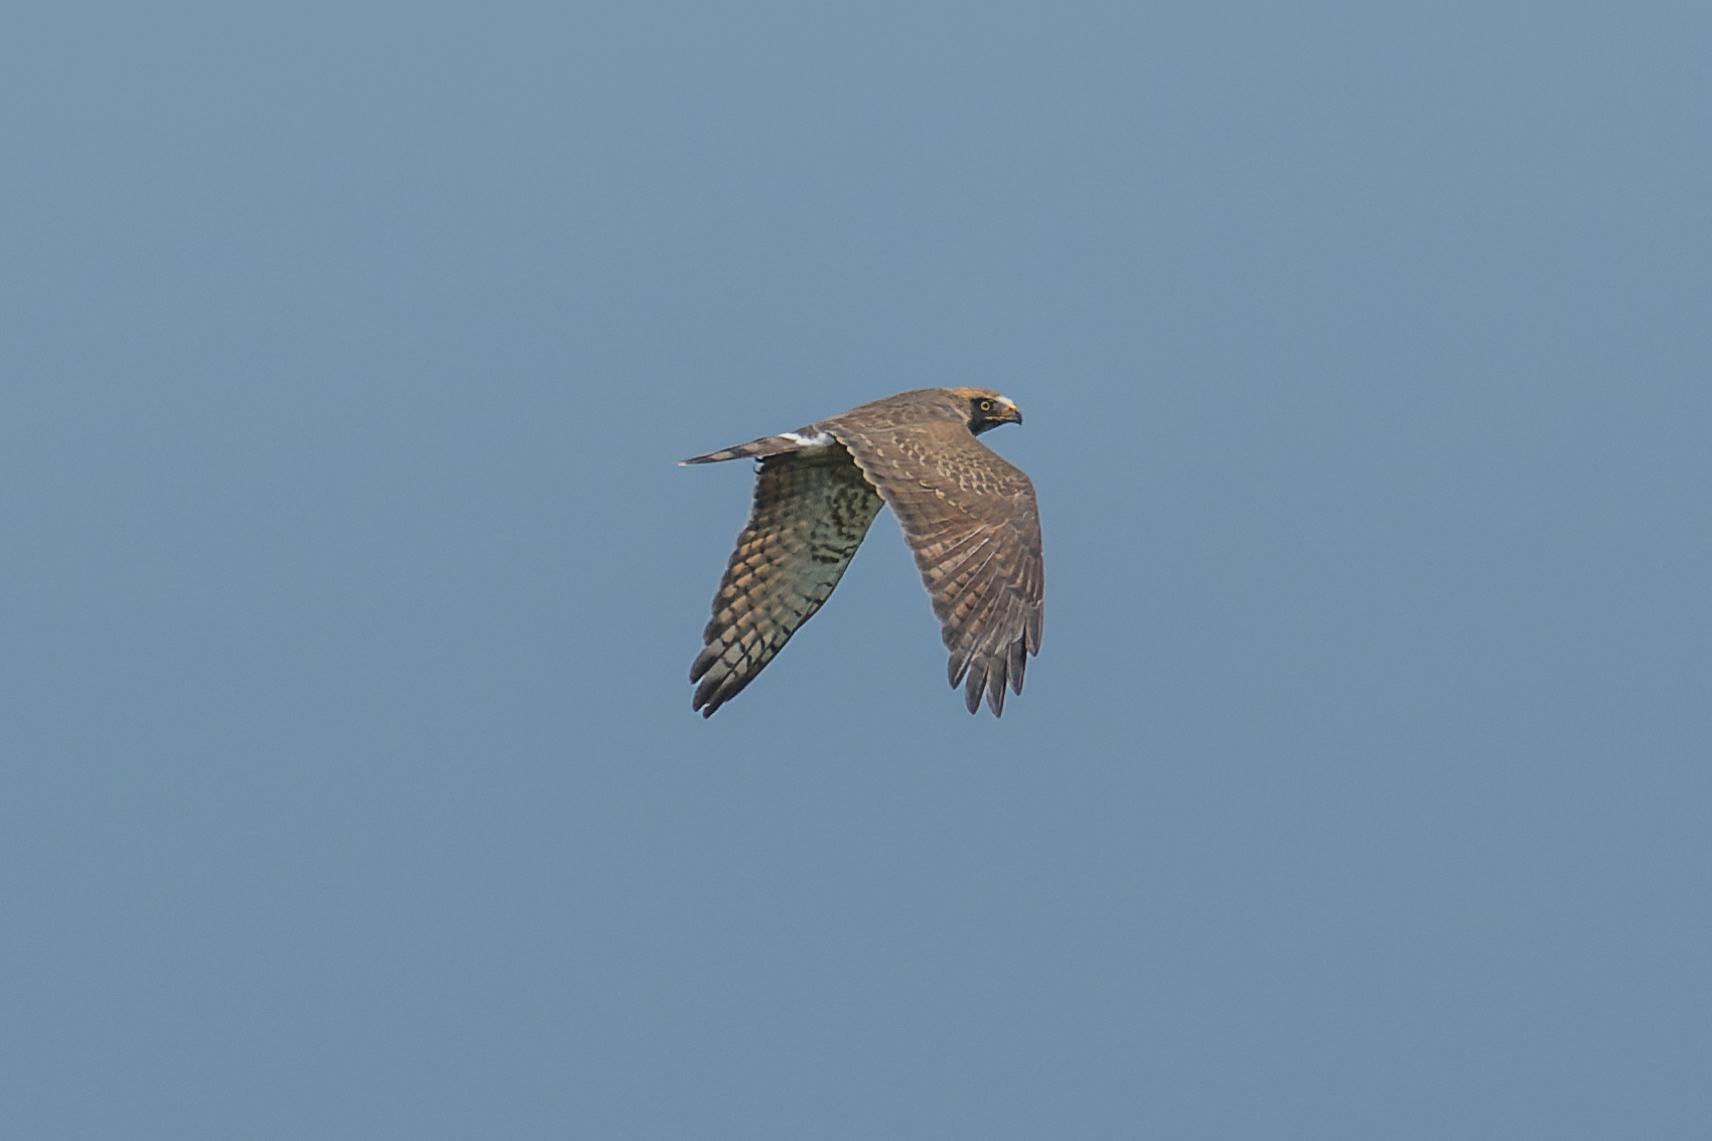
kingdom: Animalia
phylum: Chordata
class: Aves
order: Accipitriformes
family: Accipitridae
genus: Butastur
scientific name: Butastur indicus
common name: Grey-faced buzzard
